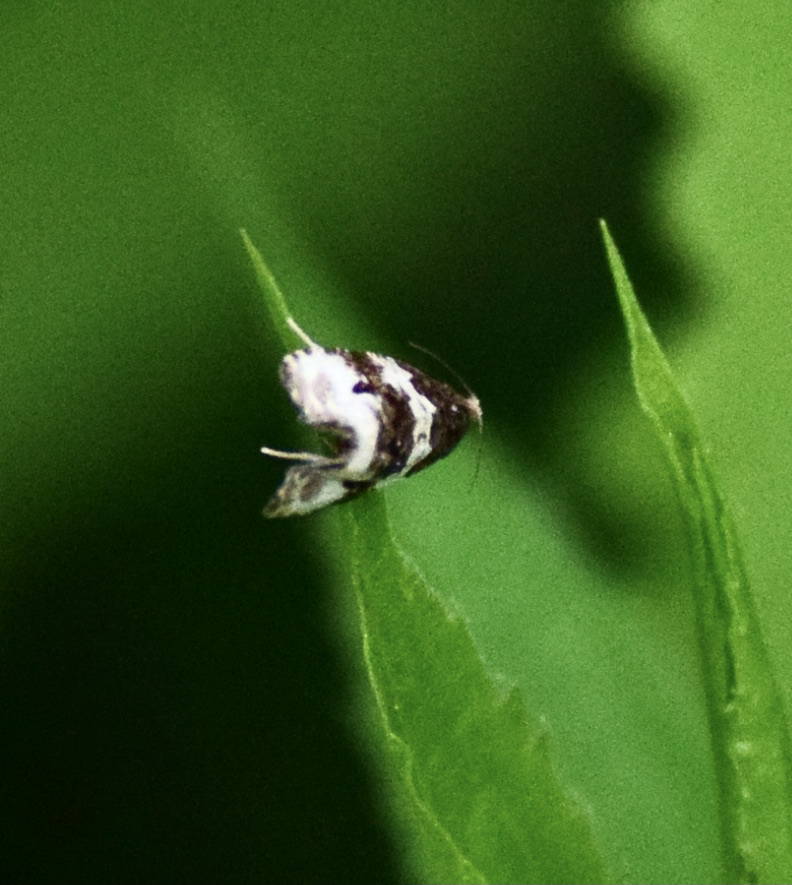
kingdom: Animalia
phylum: Arthropoda
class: Insecta
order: Lepidoptera
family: Tortricidae
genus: Olethreutes
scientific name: Olethreutes bipartitana
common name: Divided olethreutes moth
